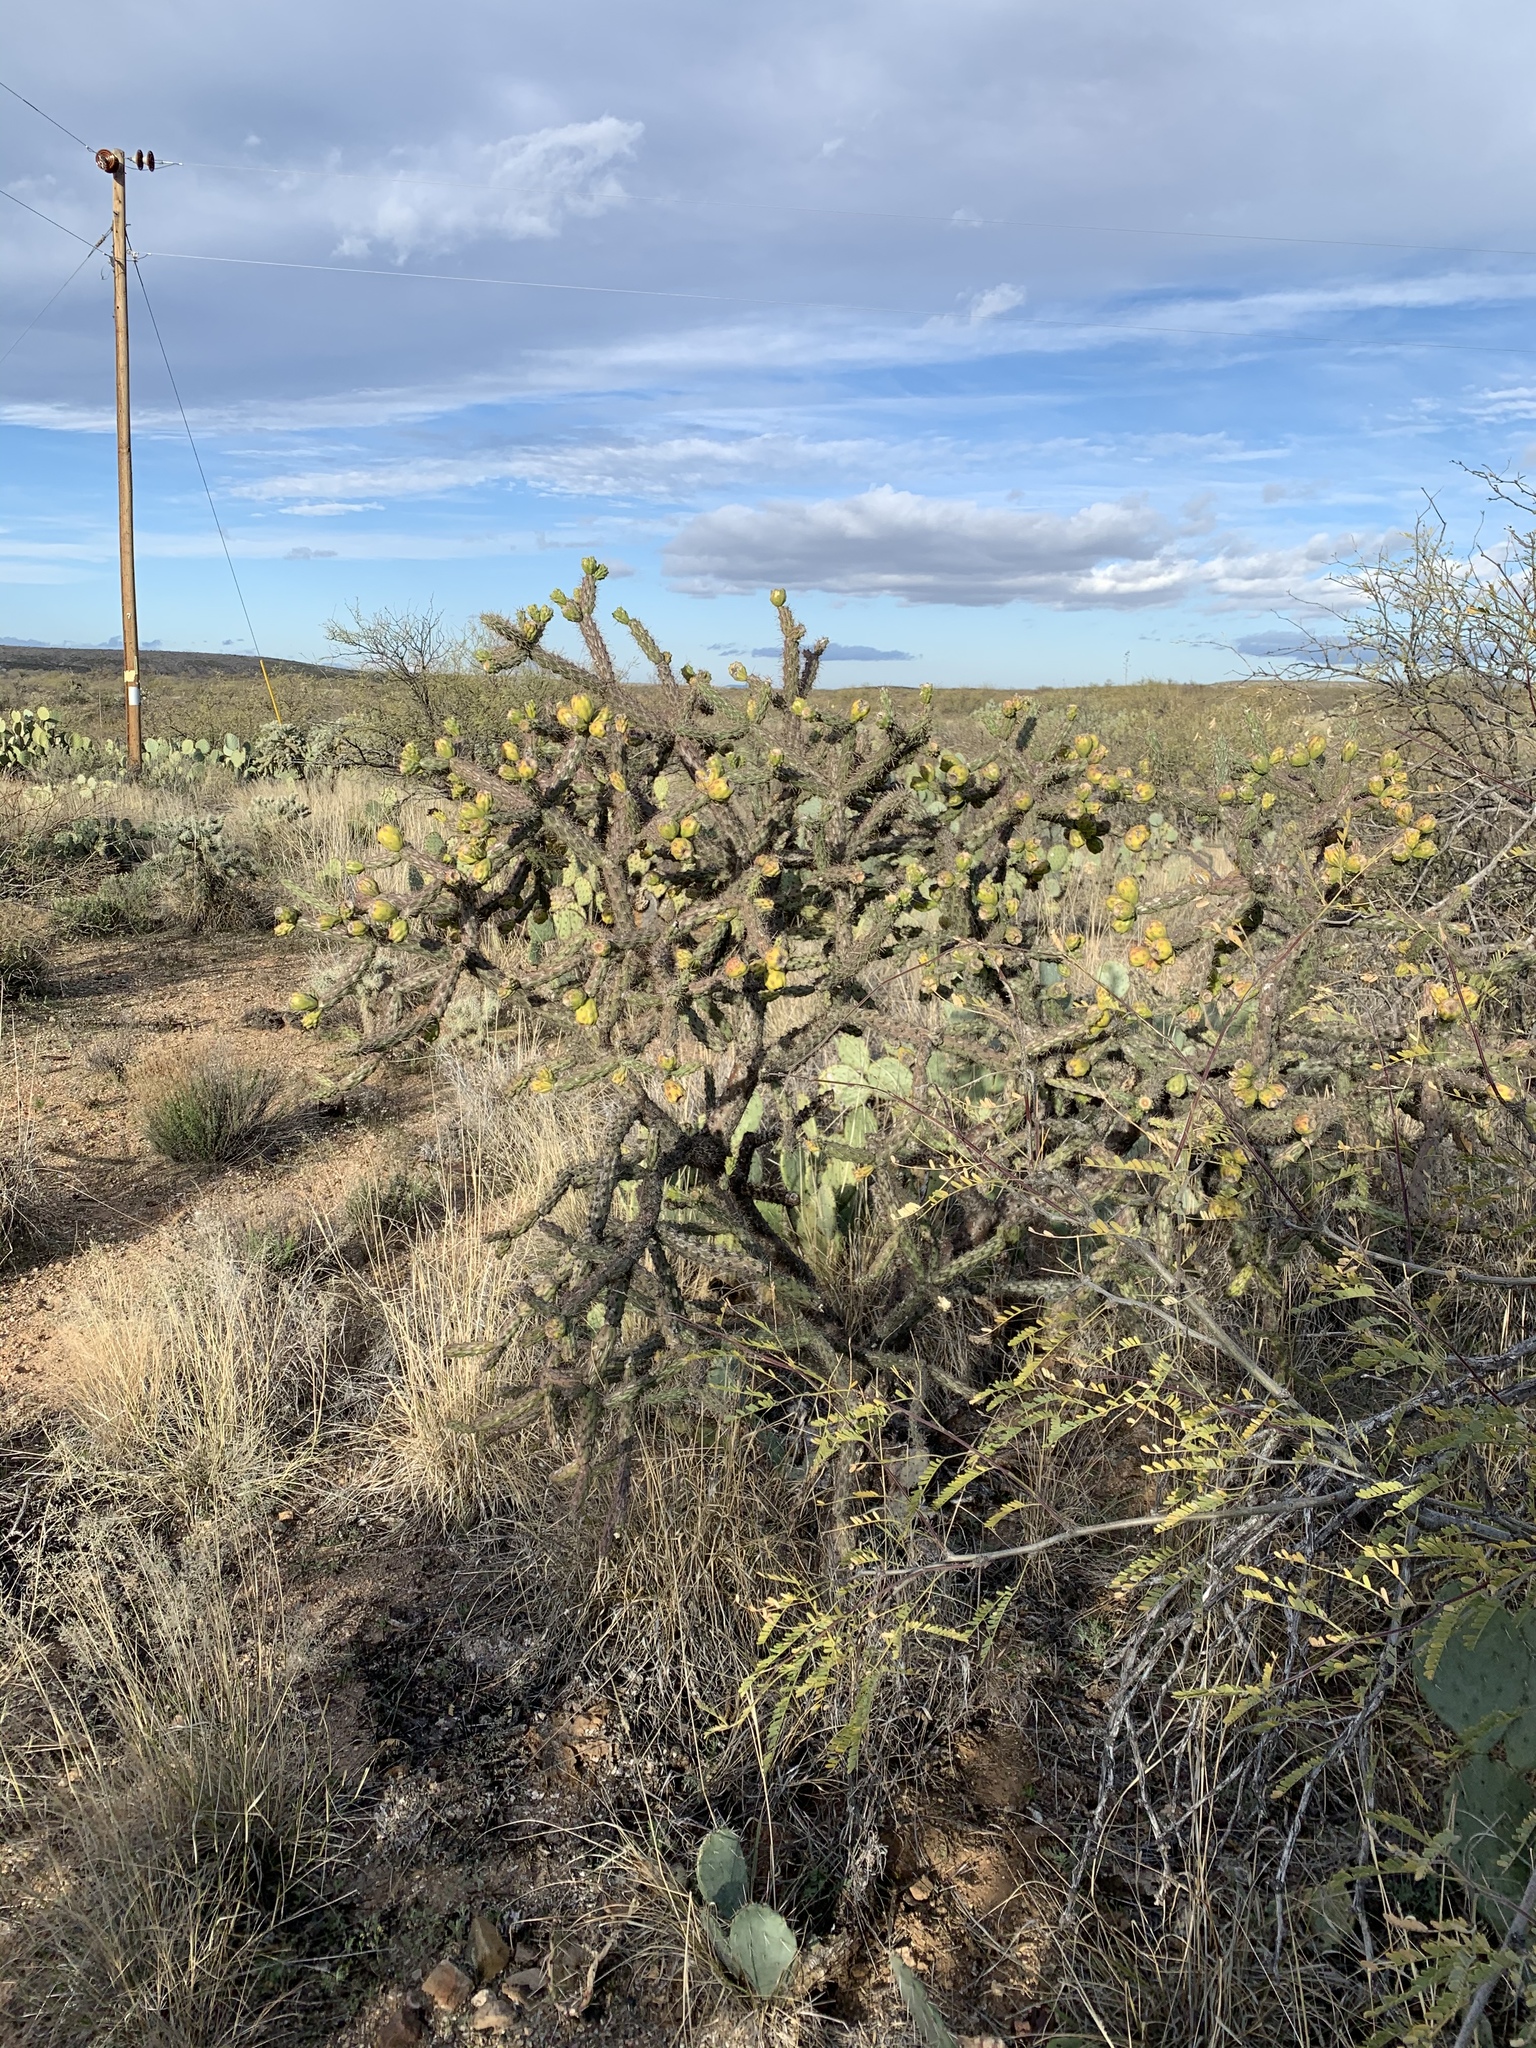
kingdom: Plantae
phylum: Tracheophyta
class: Magnoliopsida
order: Caryophyllales
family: Cactaceae
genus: Cylindropuntia
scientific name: Cylindropuntia thurberi
